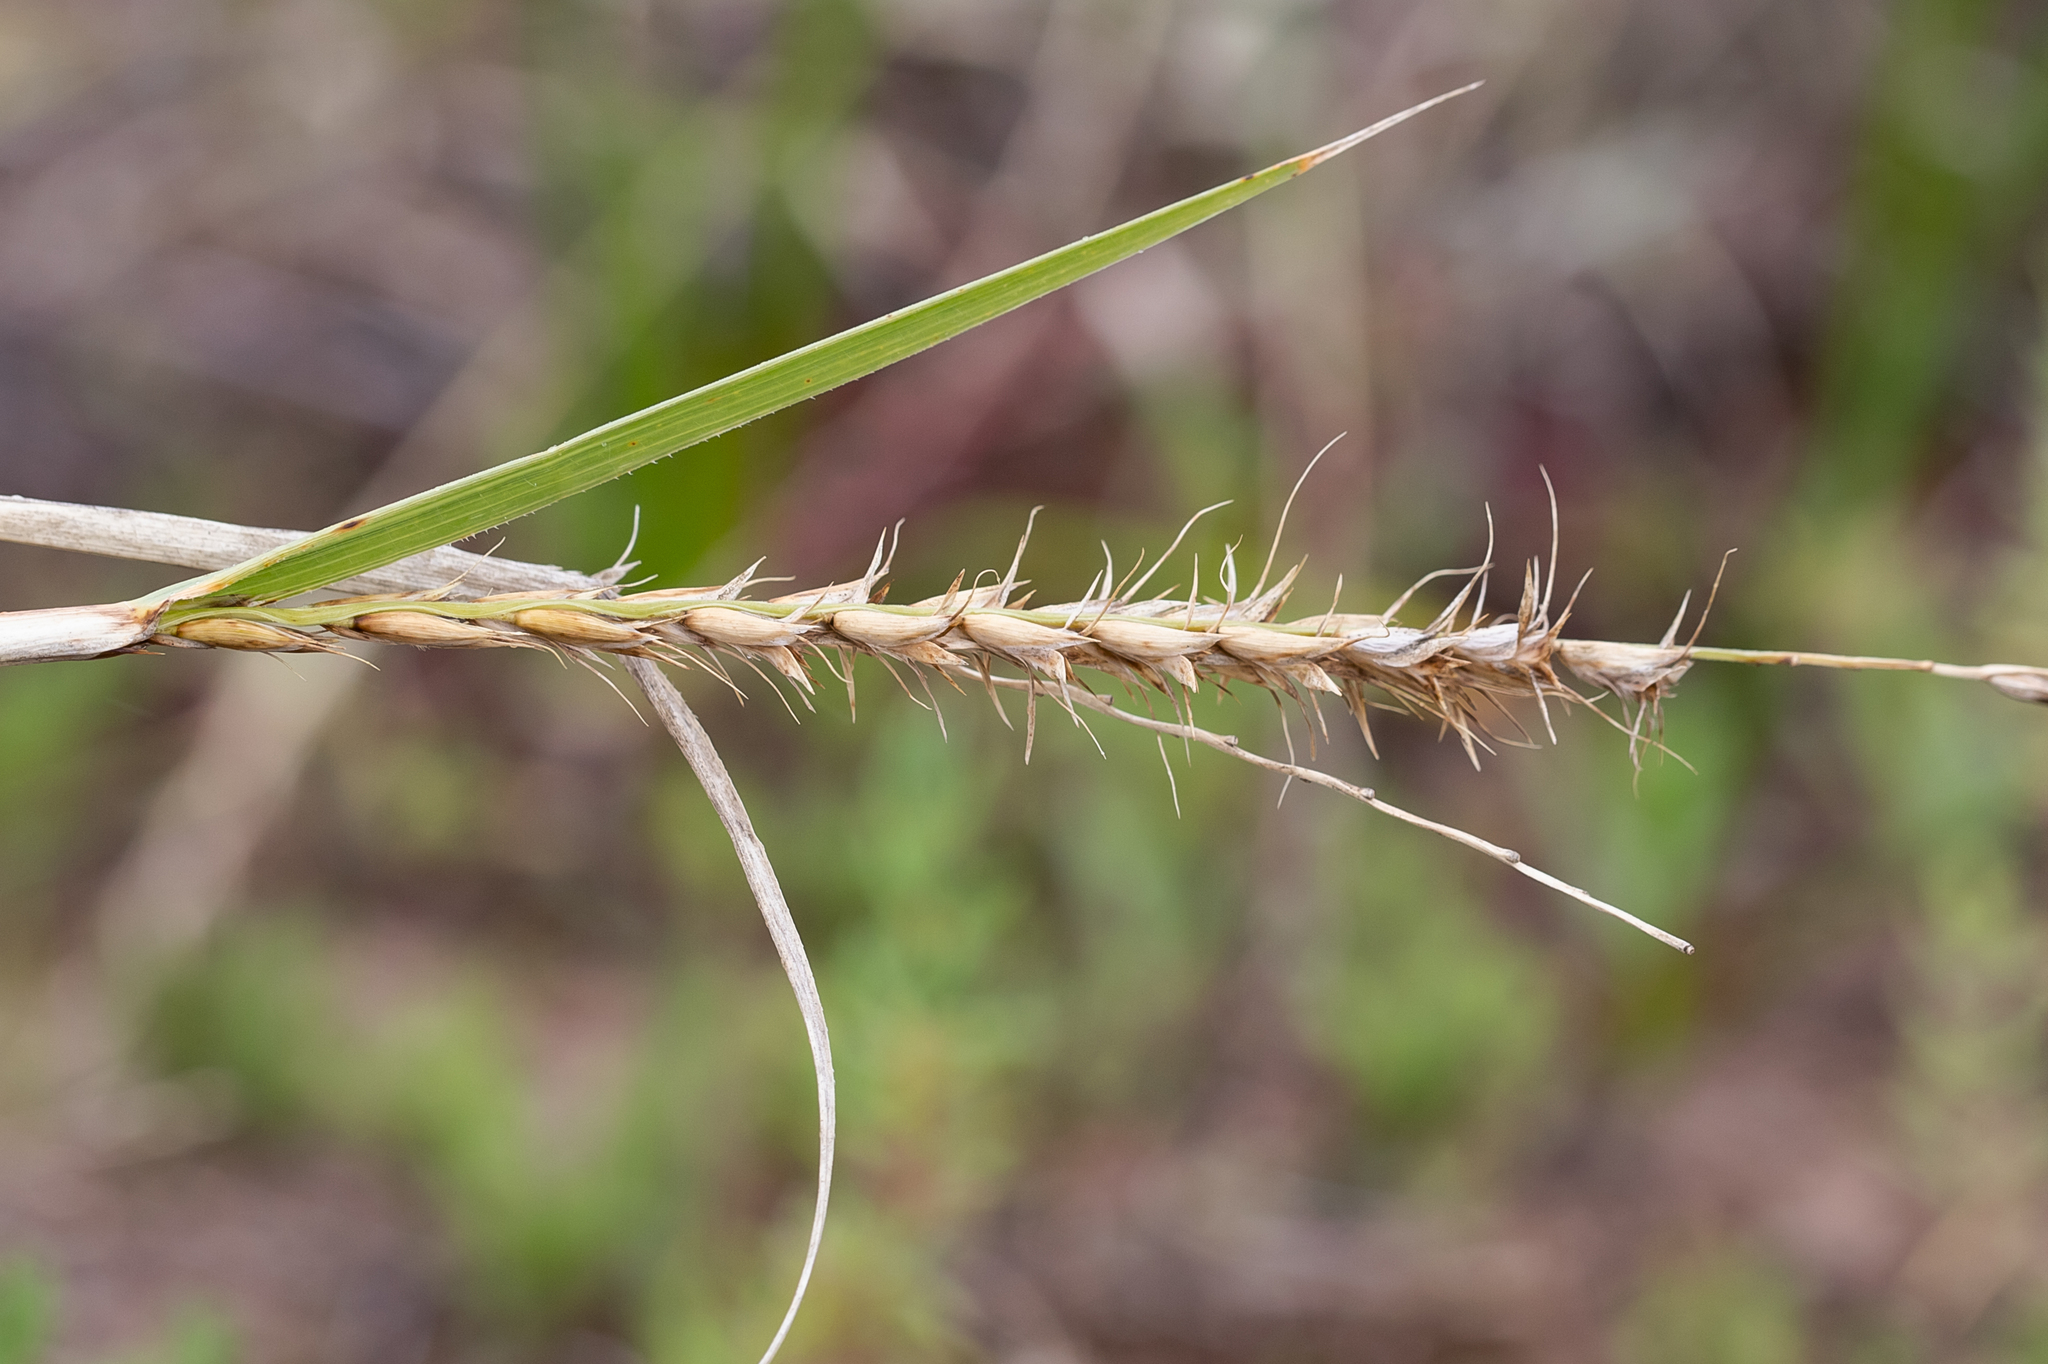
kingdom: Plantae
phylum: Tracheophyta
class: Liliopsida
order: Poales
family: Poaceae
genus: Astrebla
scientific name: Astrebla lappacea
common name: Curly mitchell grass
